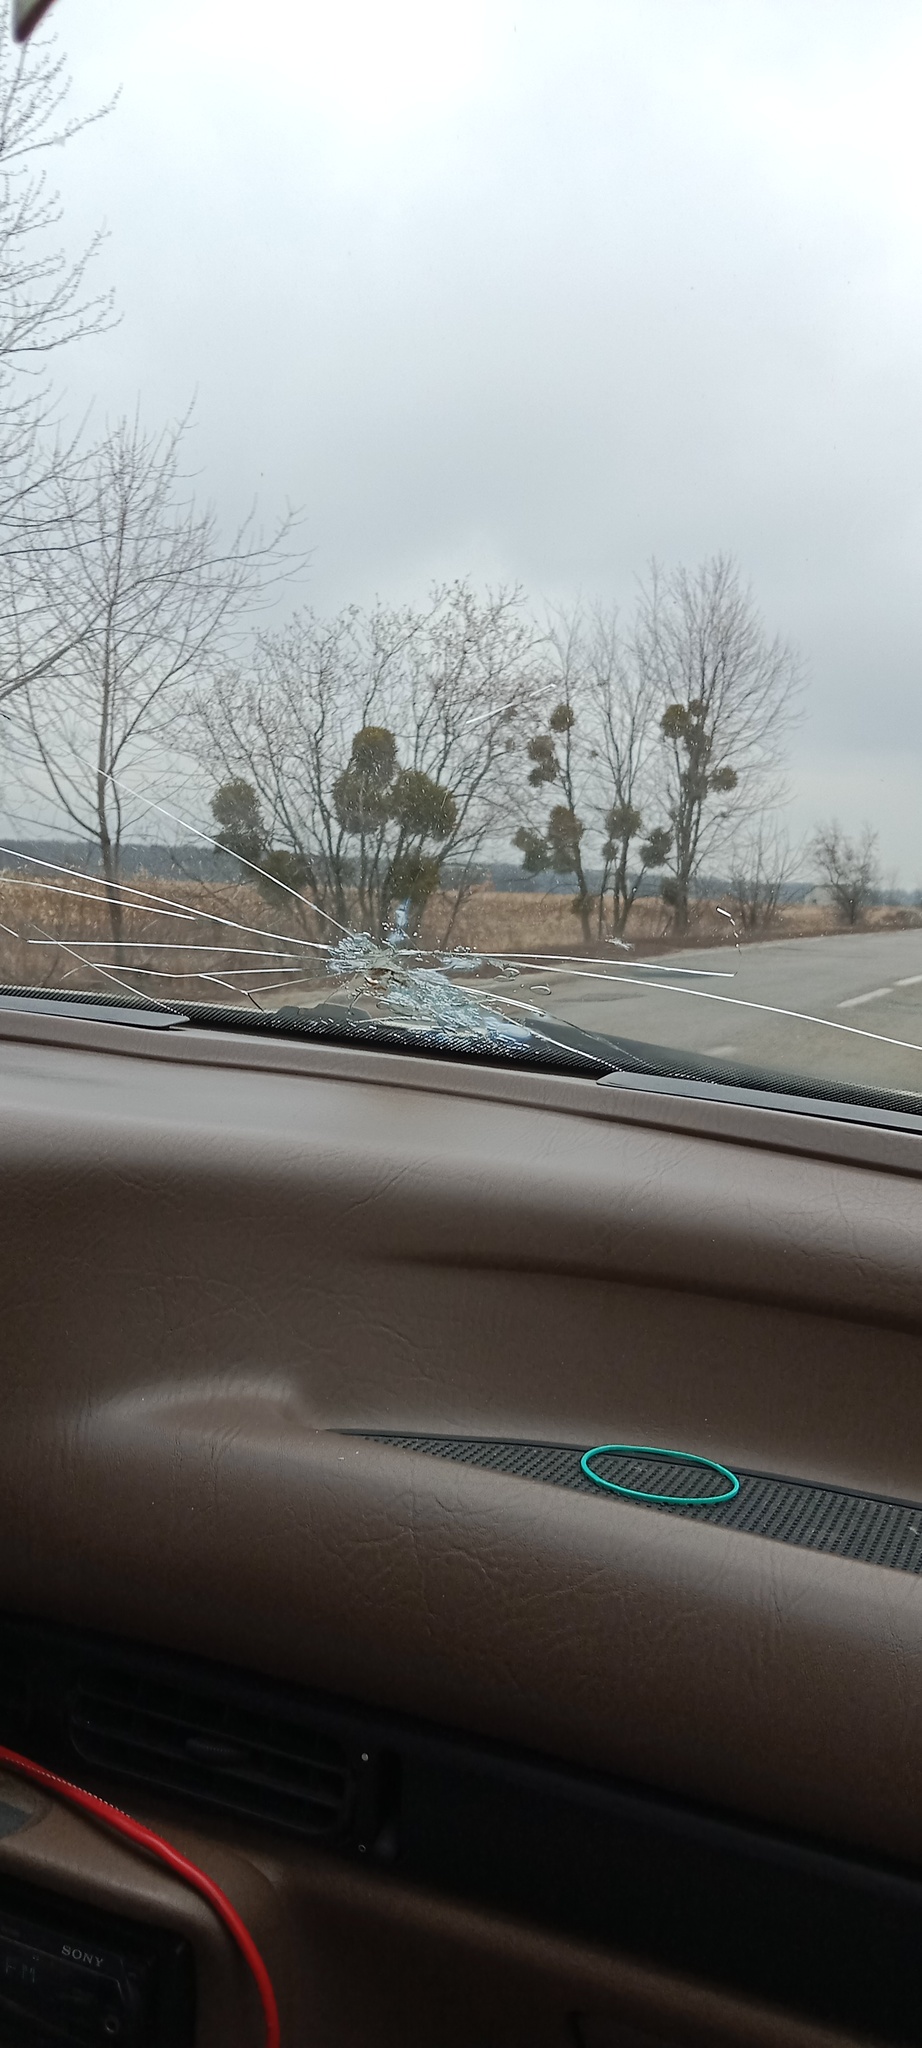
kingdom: Plantae
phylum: Tracheophyta
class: Magnoliopsida
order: Santalales
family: Viscaceae
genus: Viscum
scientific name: Viscum album
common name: Mistletoe
